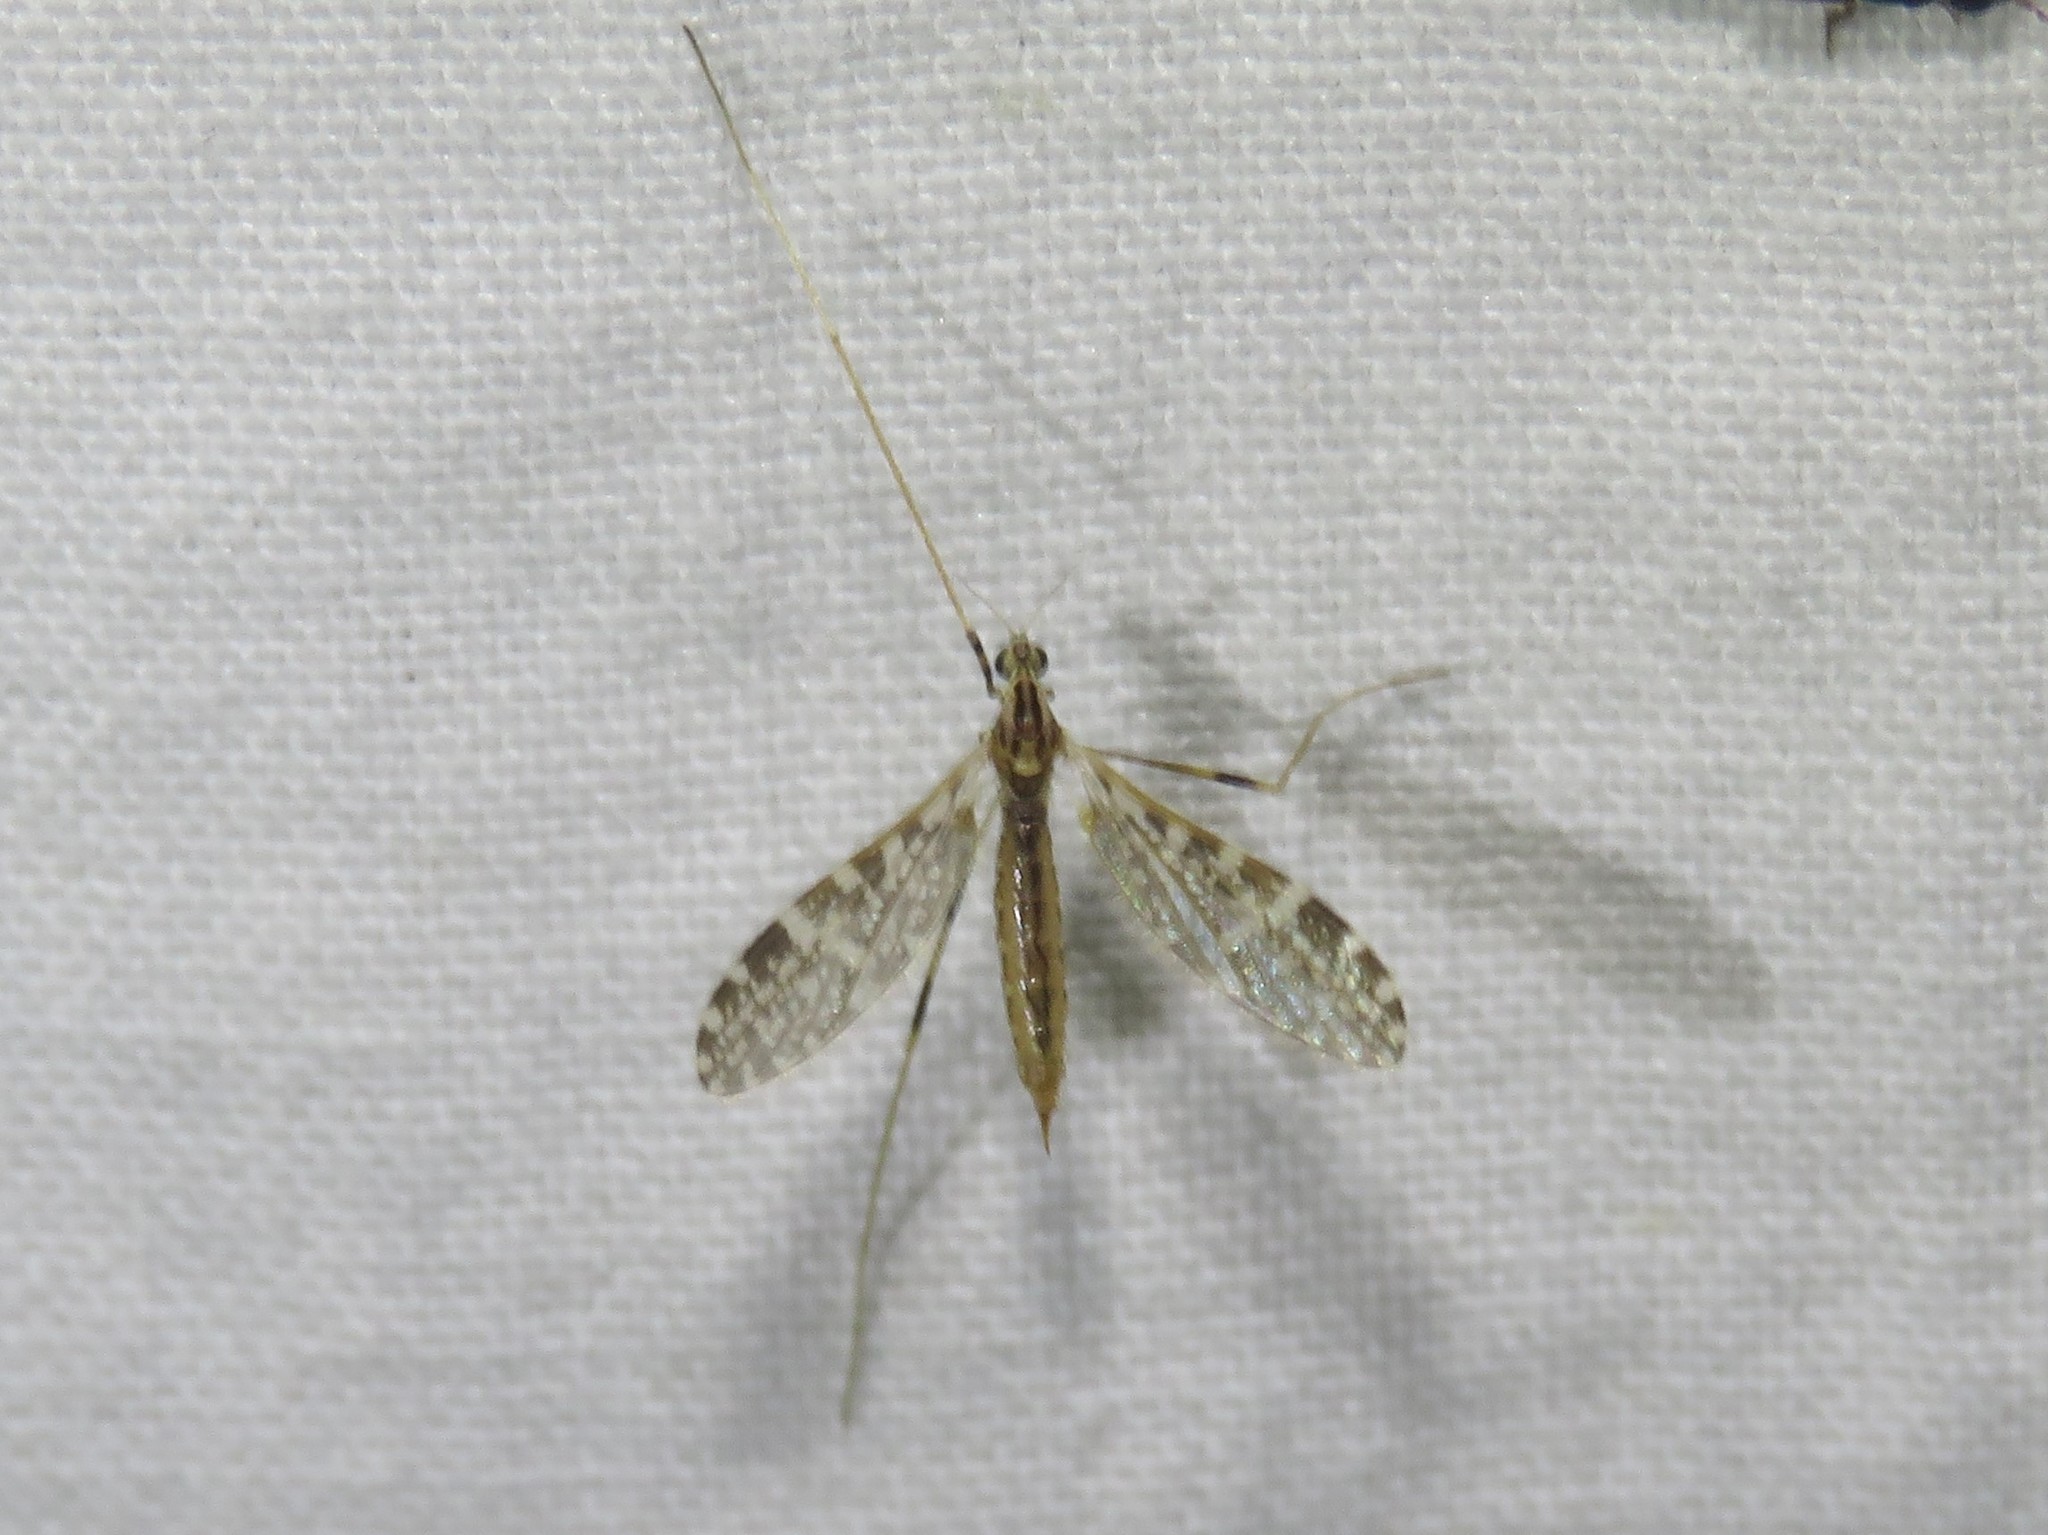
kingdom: Animalia
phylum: Arthropoda
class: Insecta
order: Diptera
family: Limoniidae
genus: Erioptera
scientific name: Erioptera caliptera
